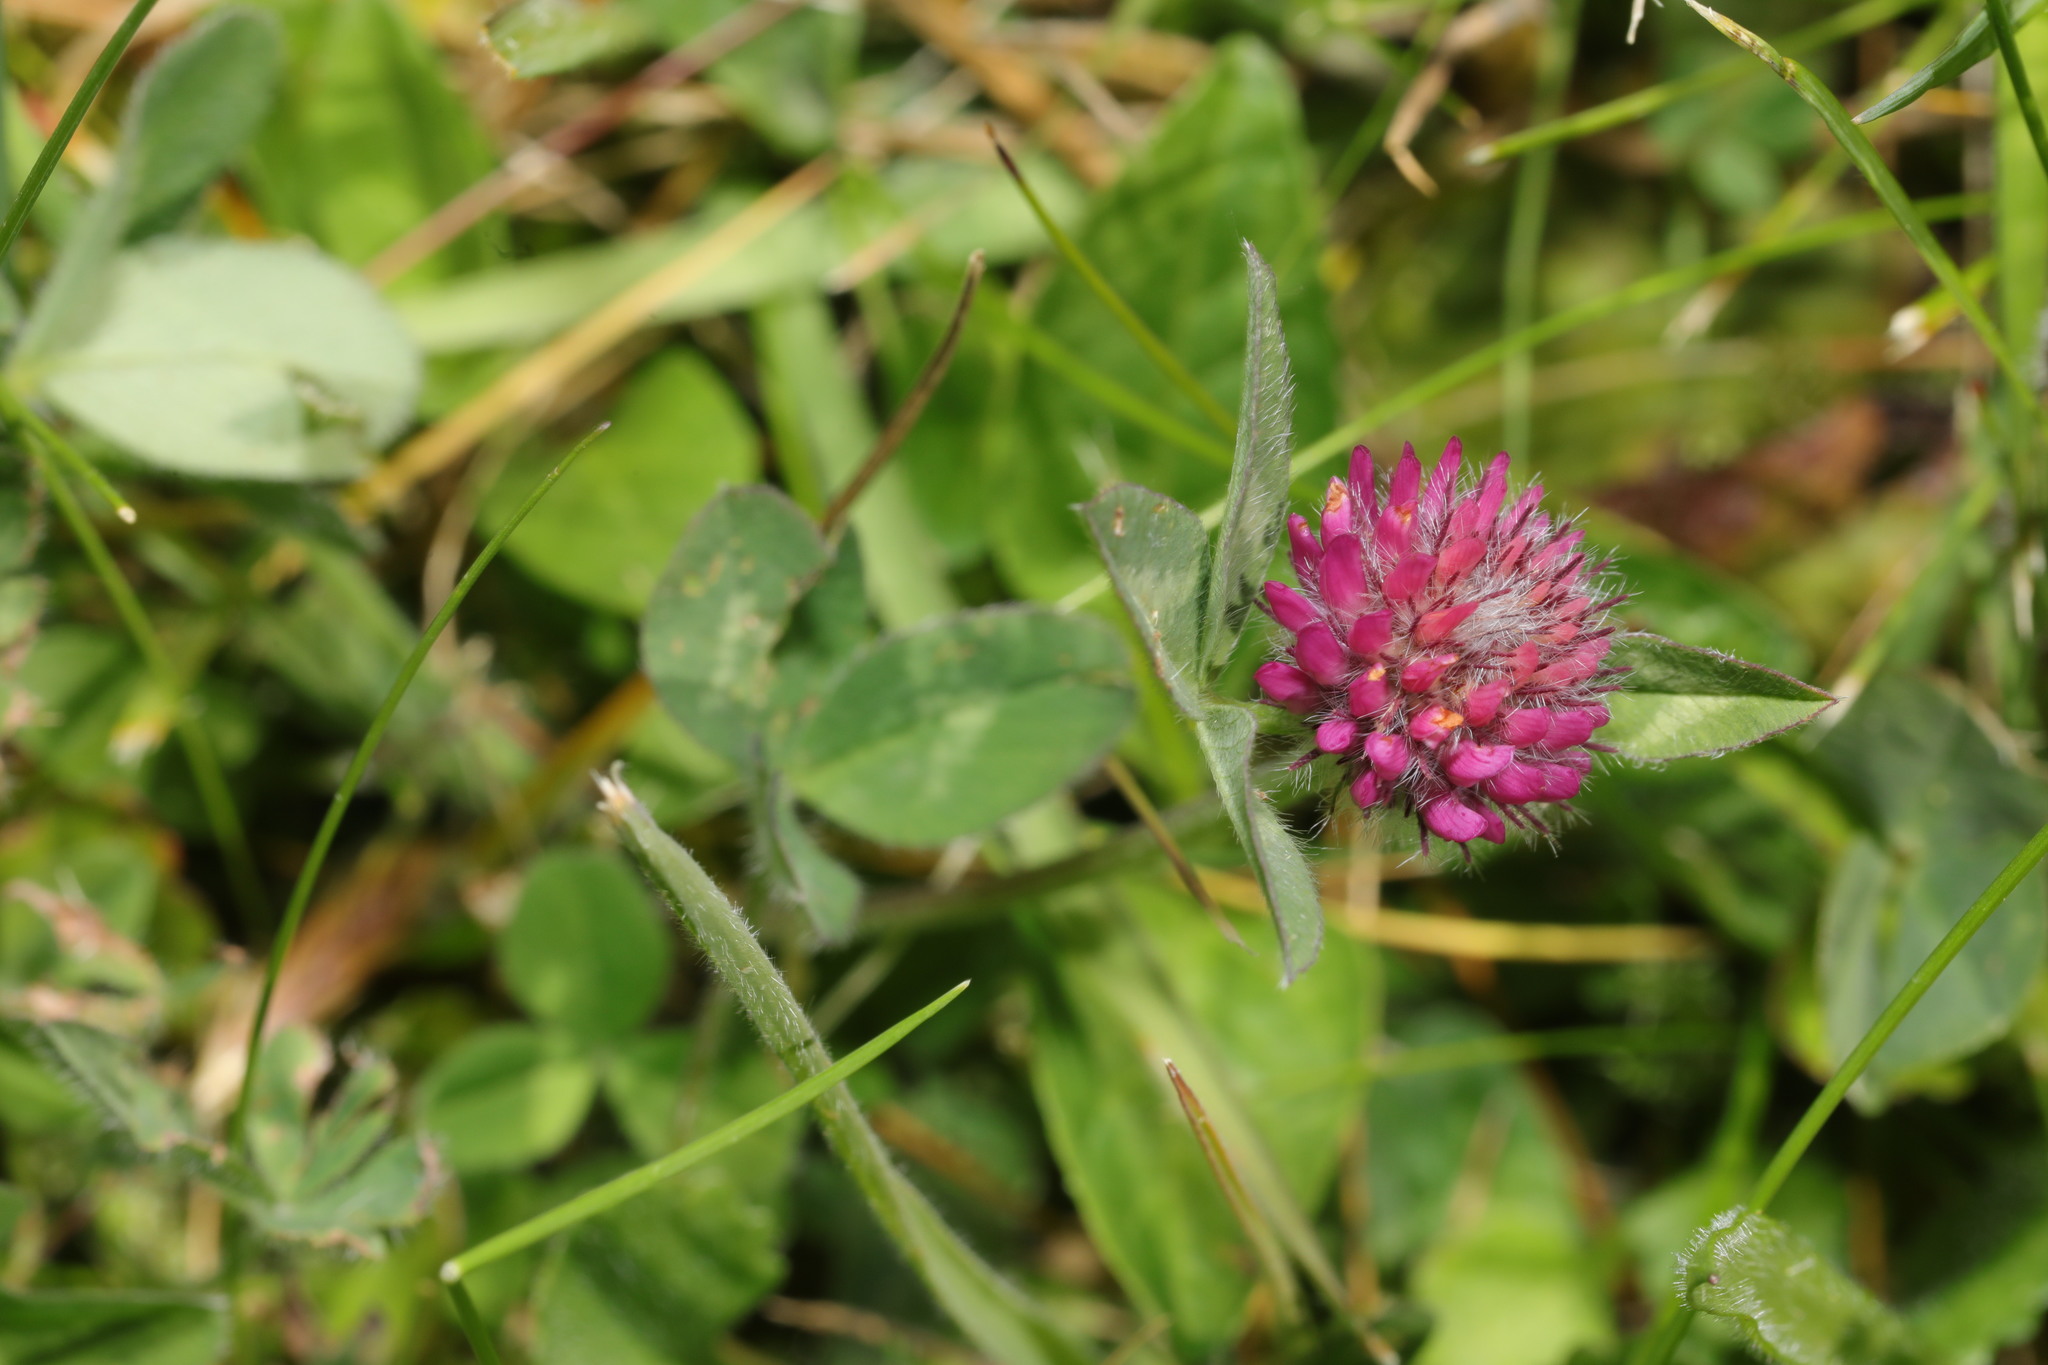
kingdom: Plantae
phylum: Tracheophyta
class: Magnoliopsida
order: Fabales
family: Fabaceae
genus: Trifolium
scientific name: Trifolium pratense
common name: Red clover
